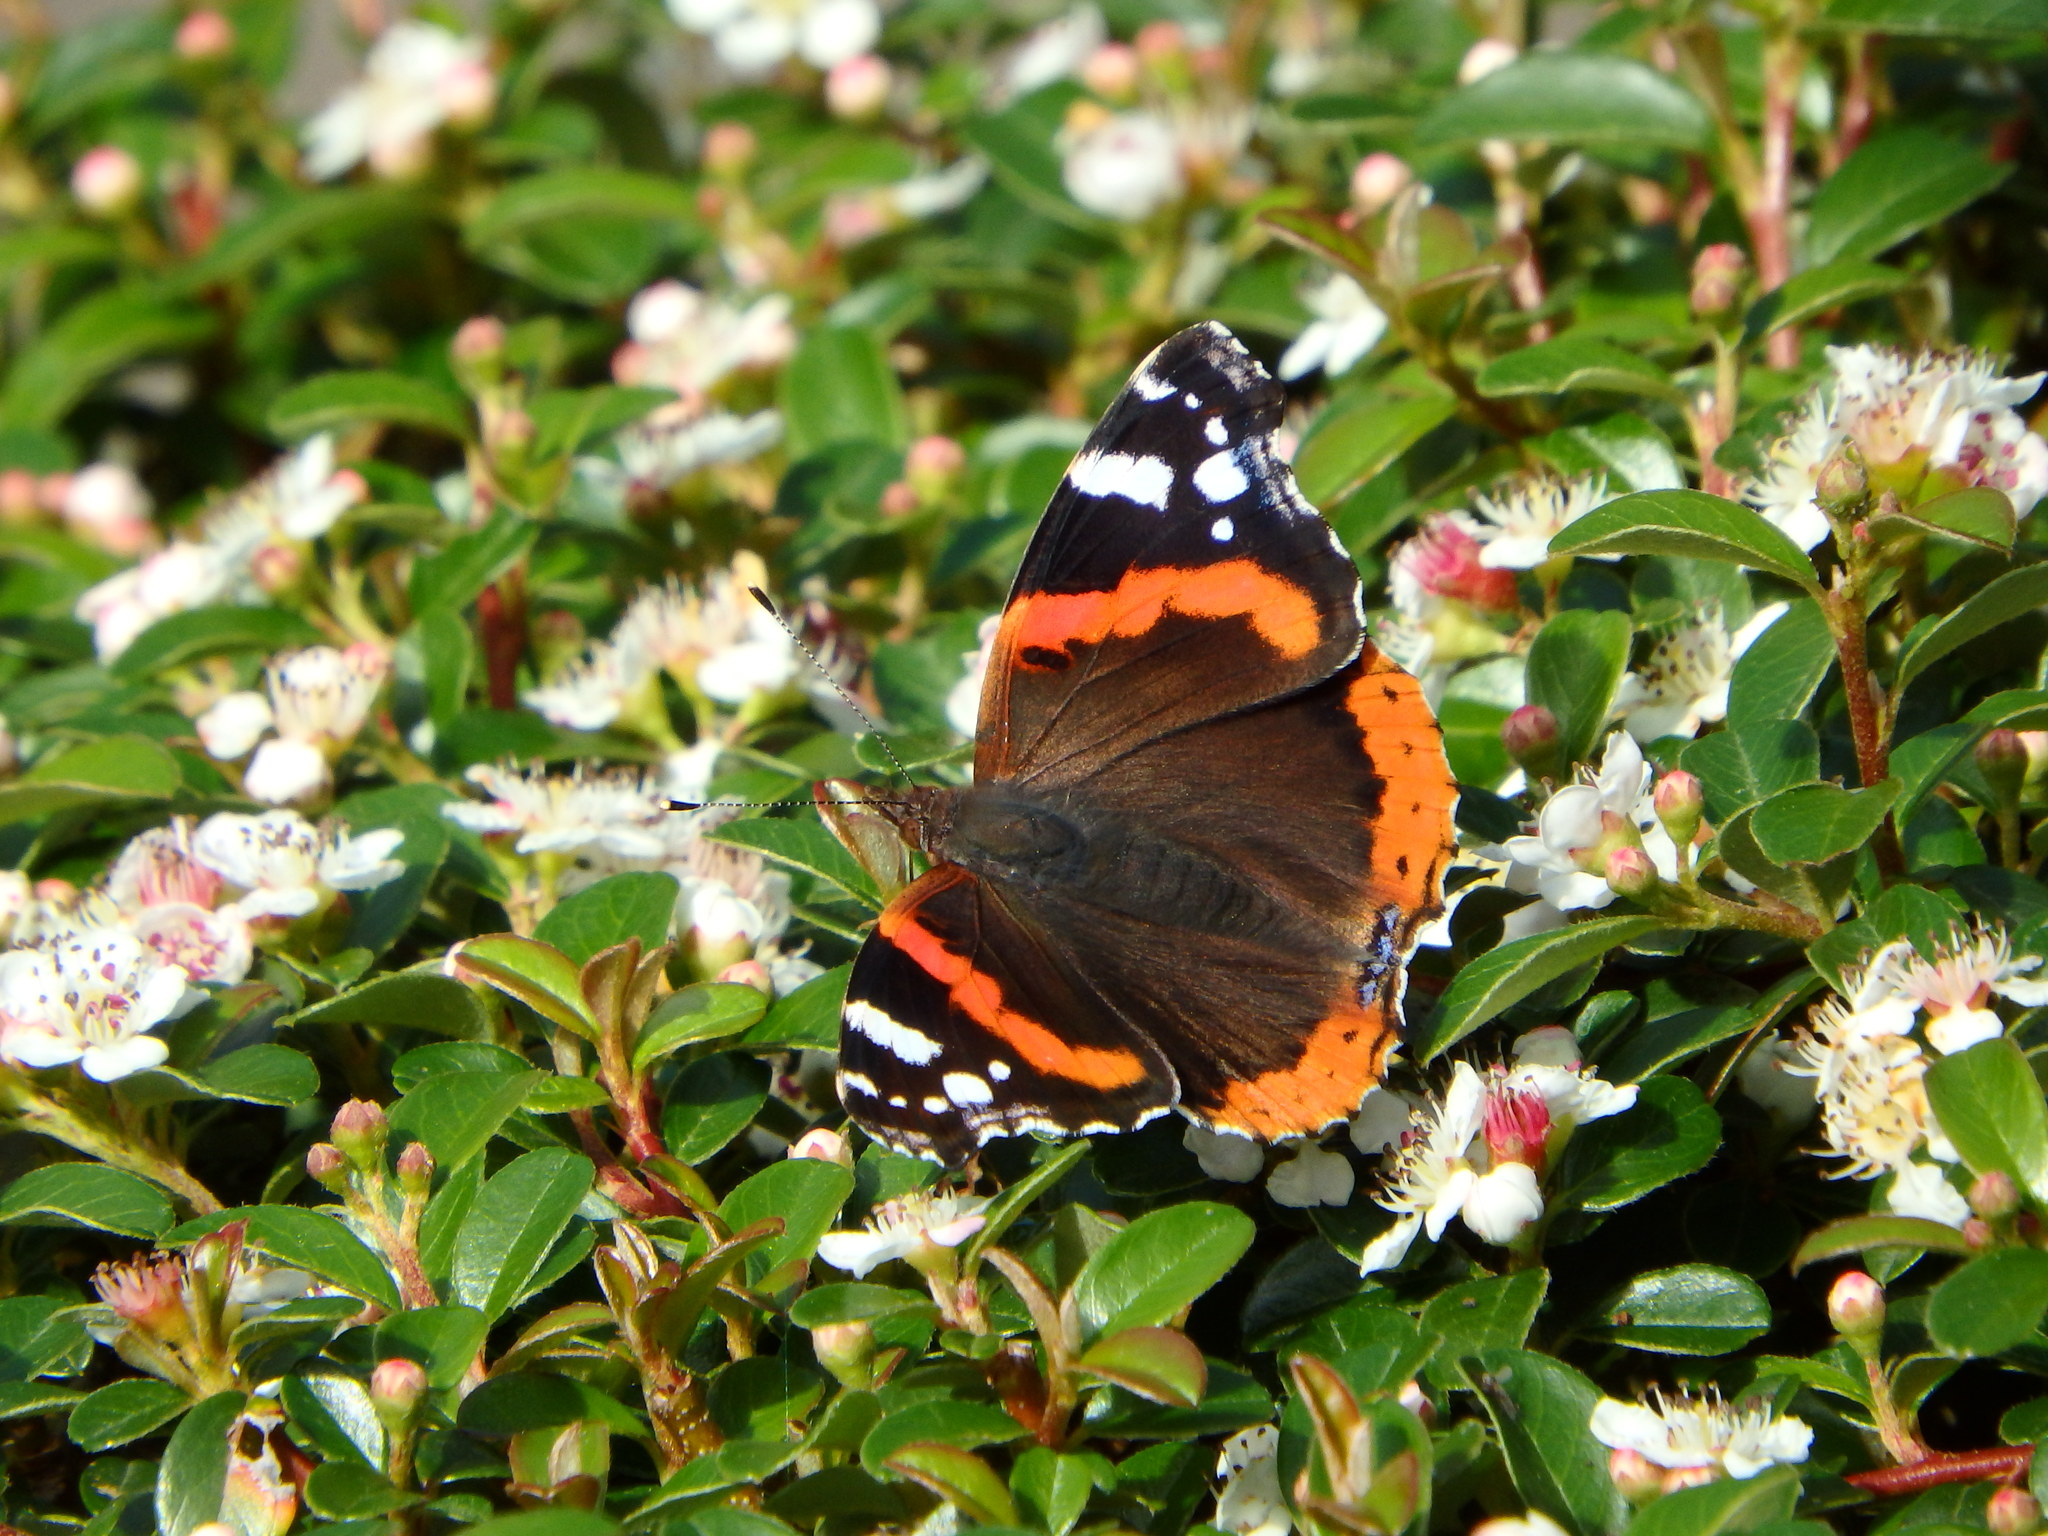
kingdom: Animalia
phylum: Arthropoda
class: Insecta
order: Lepidoptera
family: Nymphalidae
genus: Vanessa
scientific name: Vanessa atalanta
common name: Red admiral
